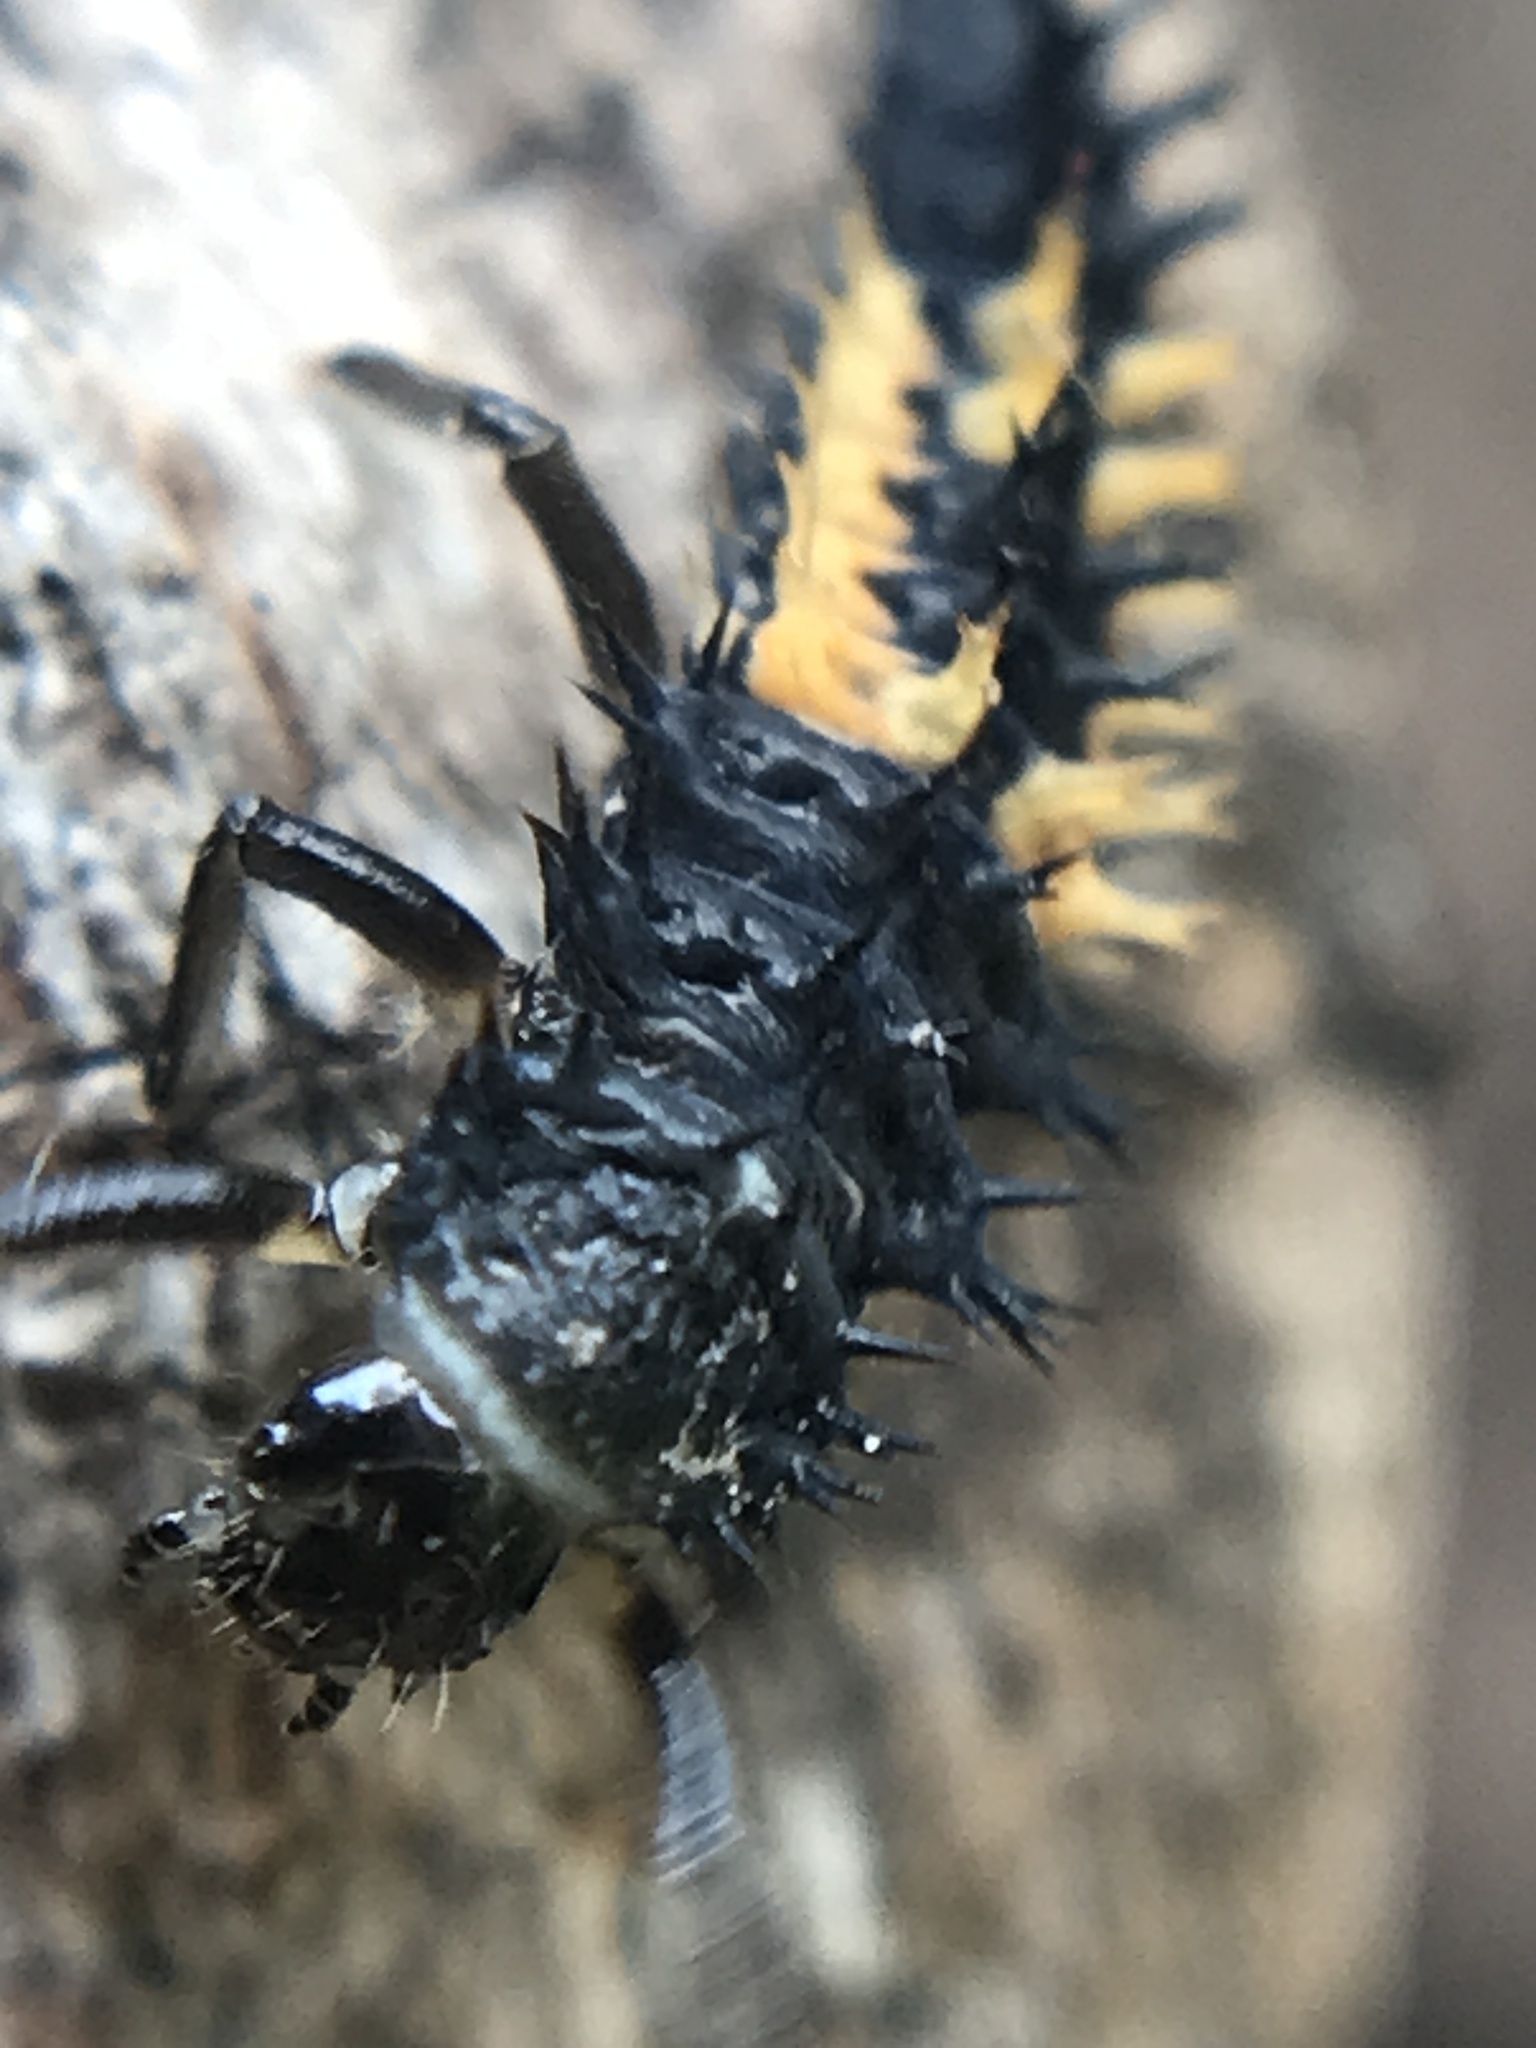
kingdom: Animalia
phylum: Arthropoda
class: Insecta
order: Coleoptera
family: Coccinellidae
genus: Harmonia
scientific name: Harmonia axyridis
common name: Harlequin ladybird
